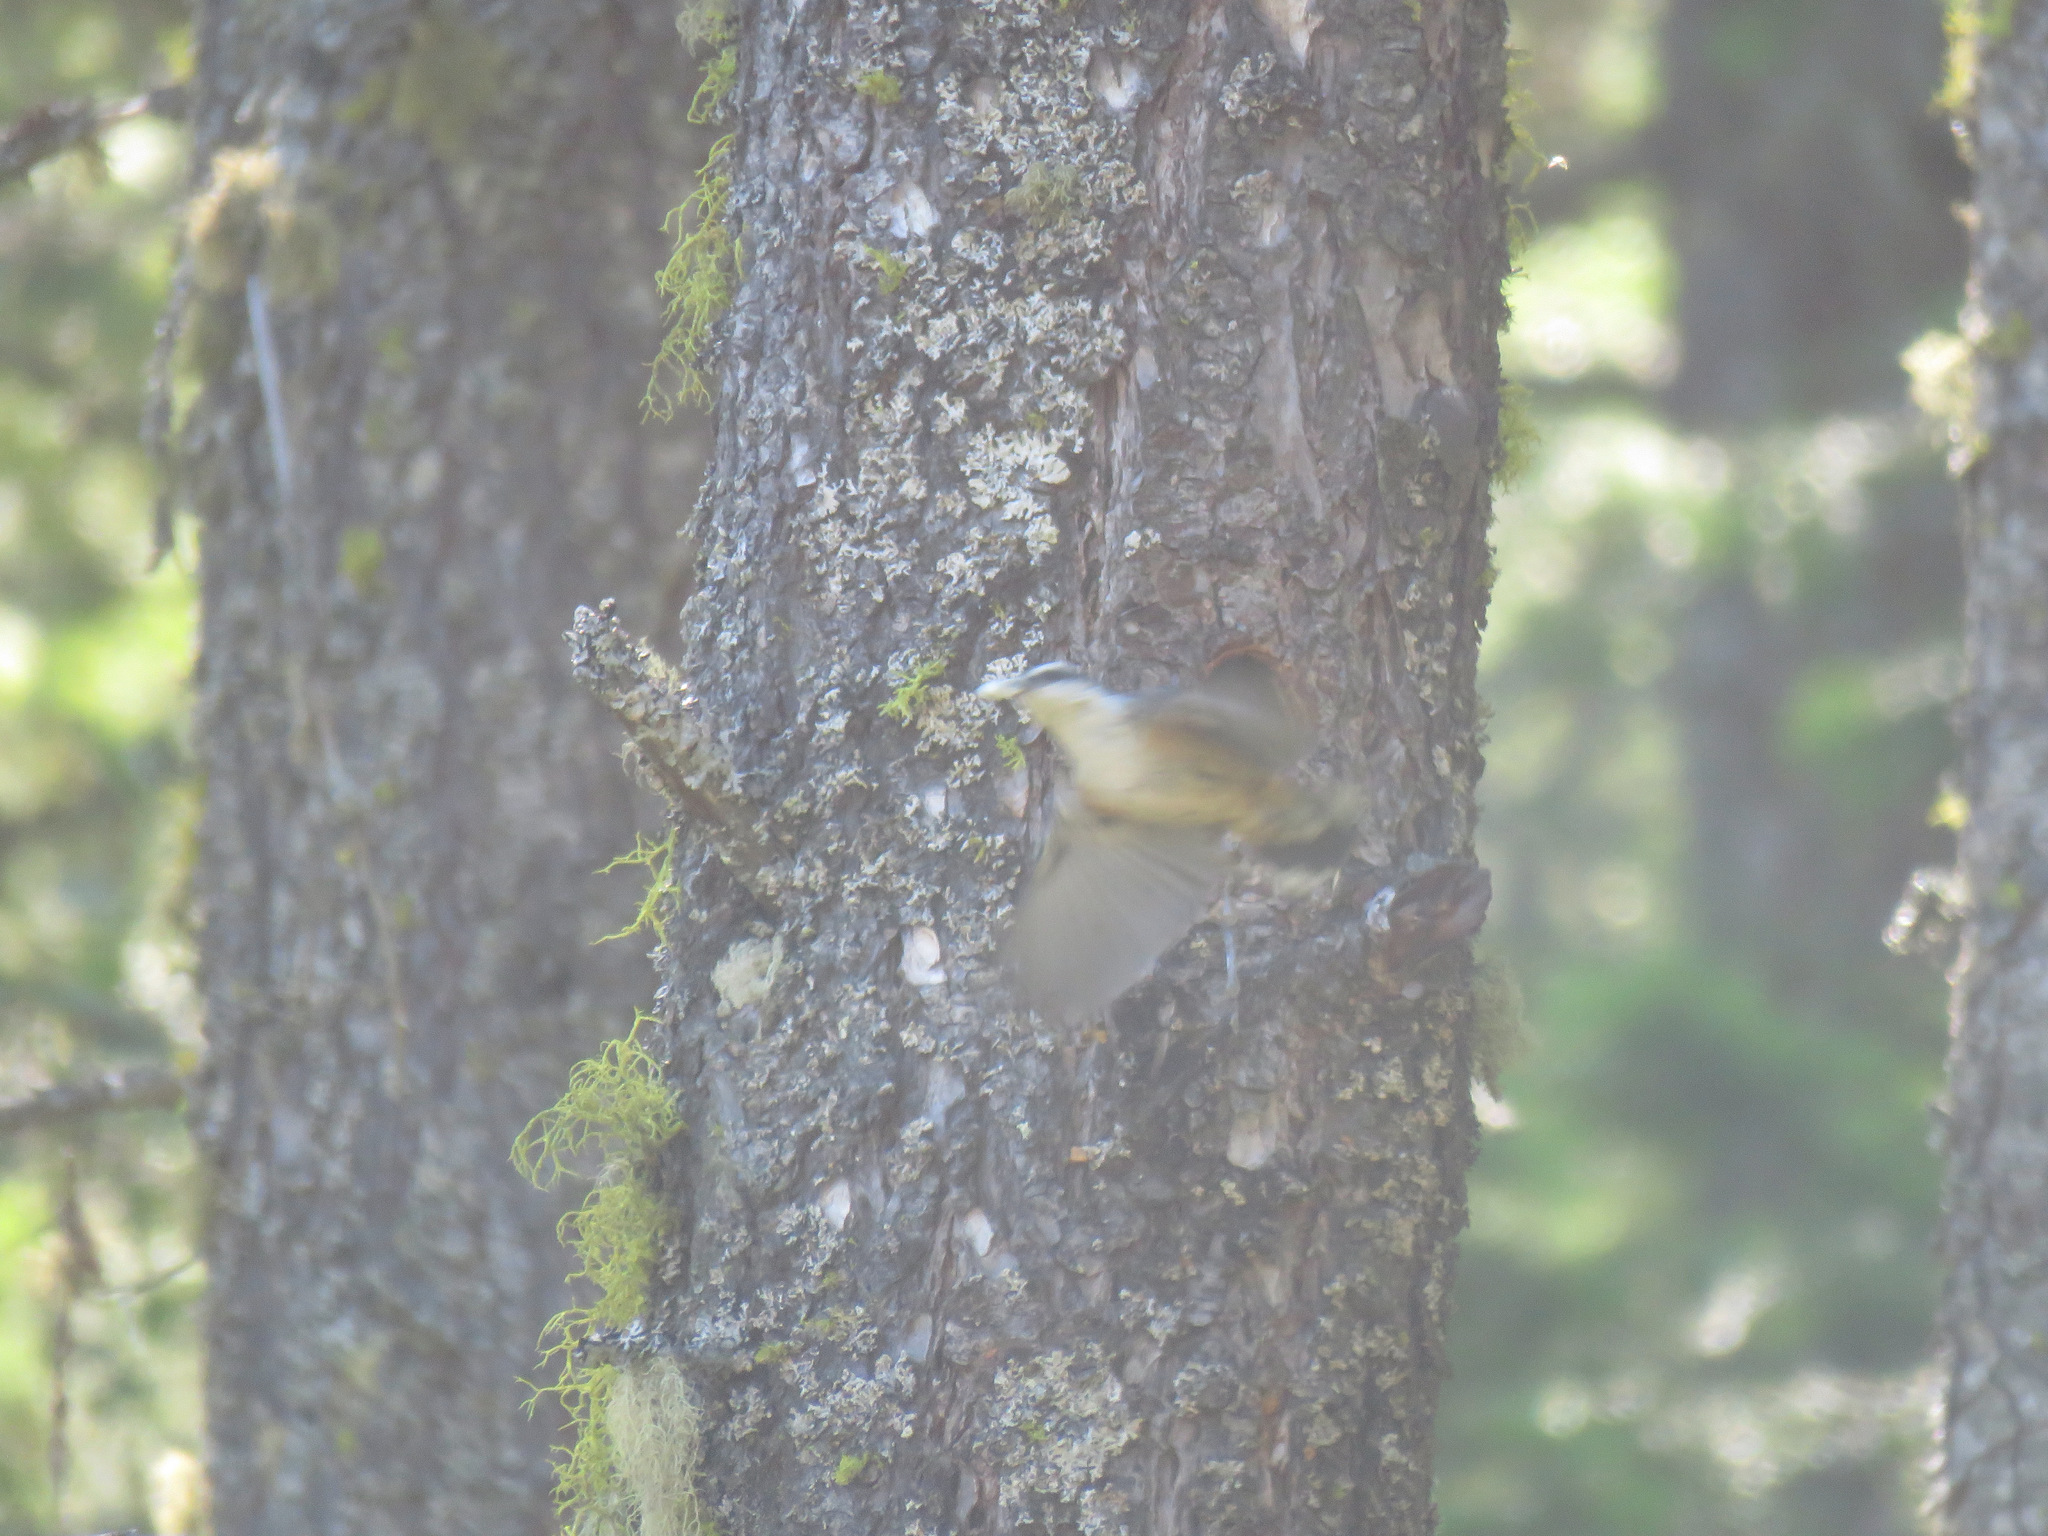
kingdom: Animalia
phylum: Chordata
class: Aves
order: Passeriformes
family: Sittidae
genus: Sitta
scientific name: Sitta canadensis
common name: Red-breasted nuthatch
